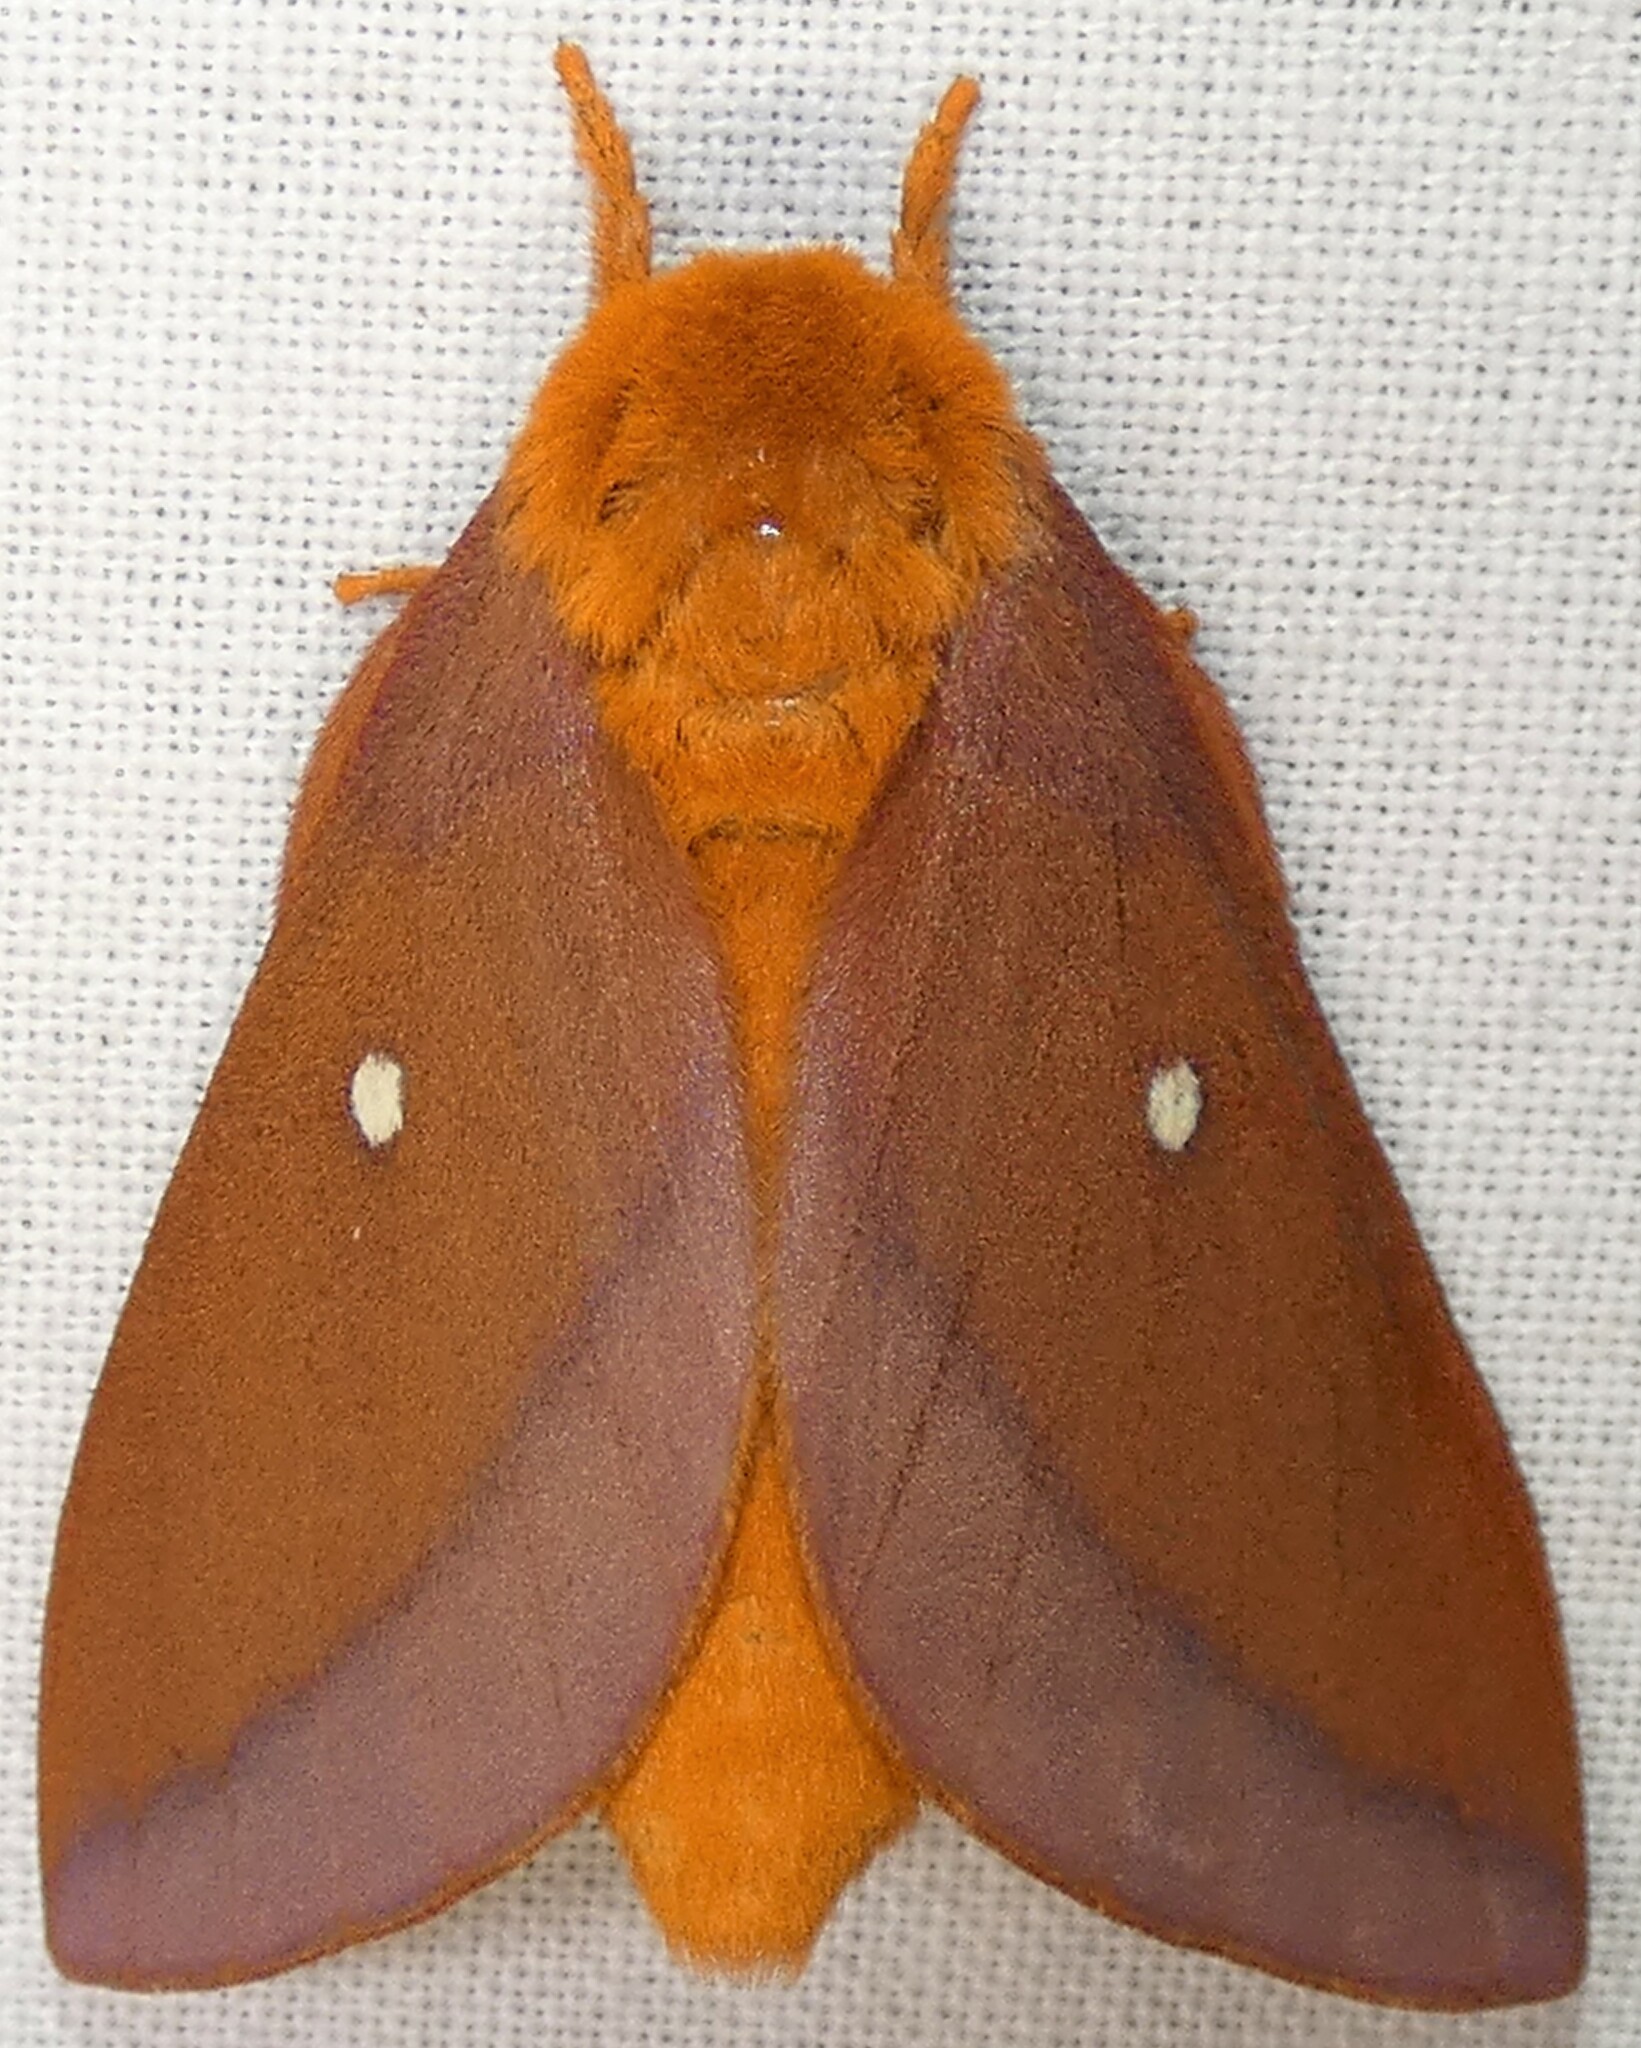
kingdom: Animalia
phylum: Arthropoda
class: Insecta
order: Lepidoptera
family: Saturniidae
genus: Anisota
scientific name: Anisota virginiensis
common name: Pink striped oakworm moth
